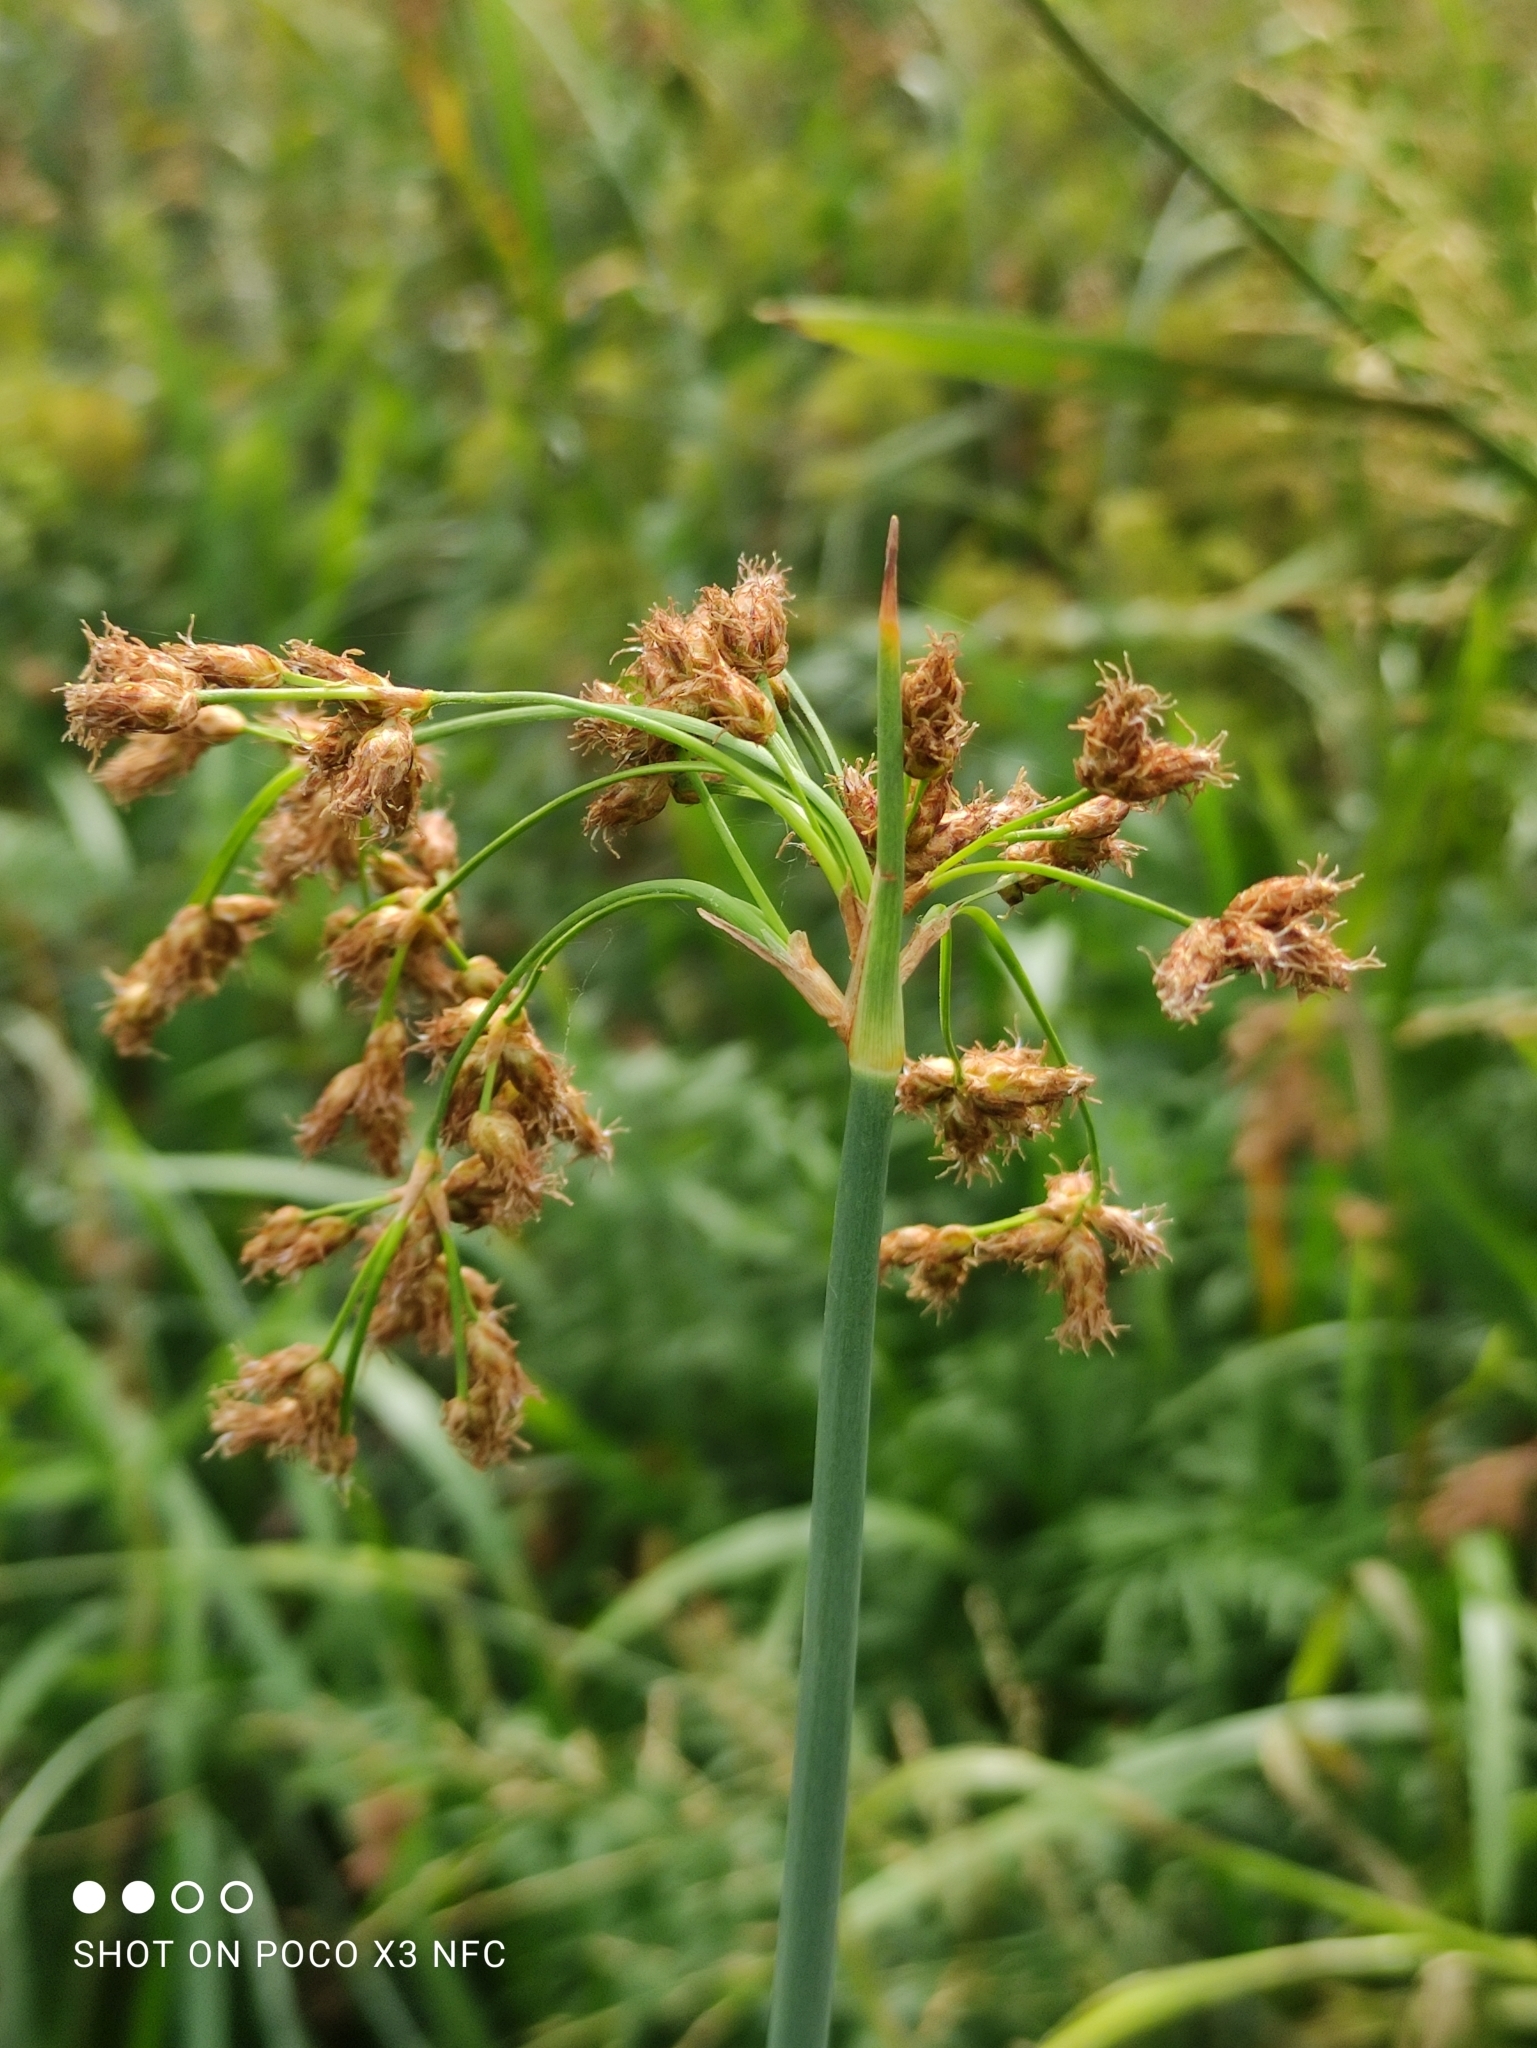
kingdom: Plantae
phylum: Tracheophyta
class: Liliopsida
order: Poales
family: Cyperaceae
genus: Schoenoplectus
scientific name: Schoenoplectus lacustris
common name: Common club-rush
